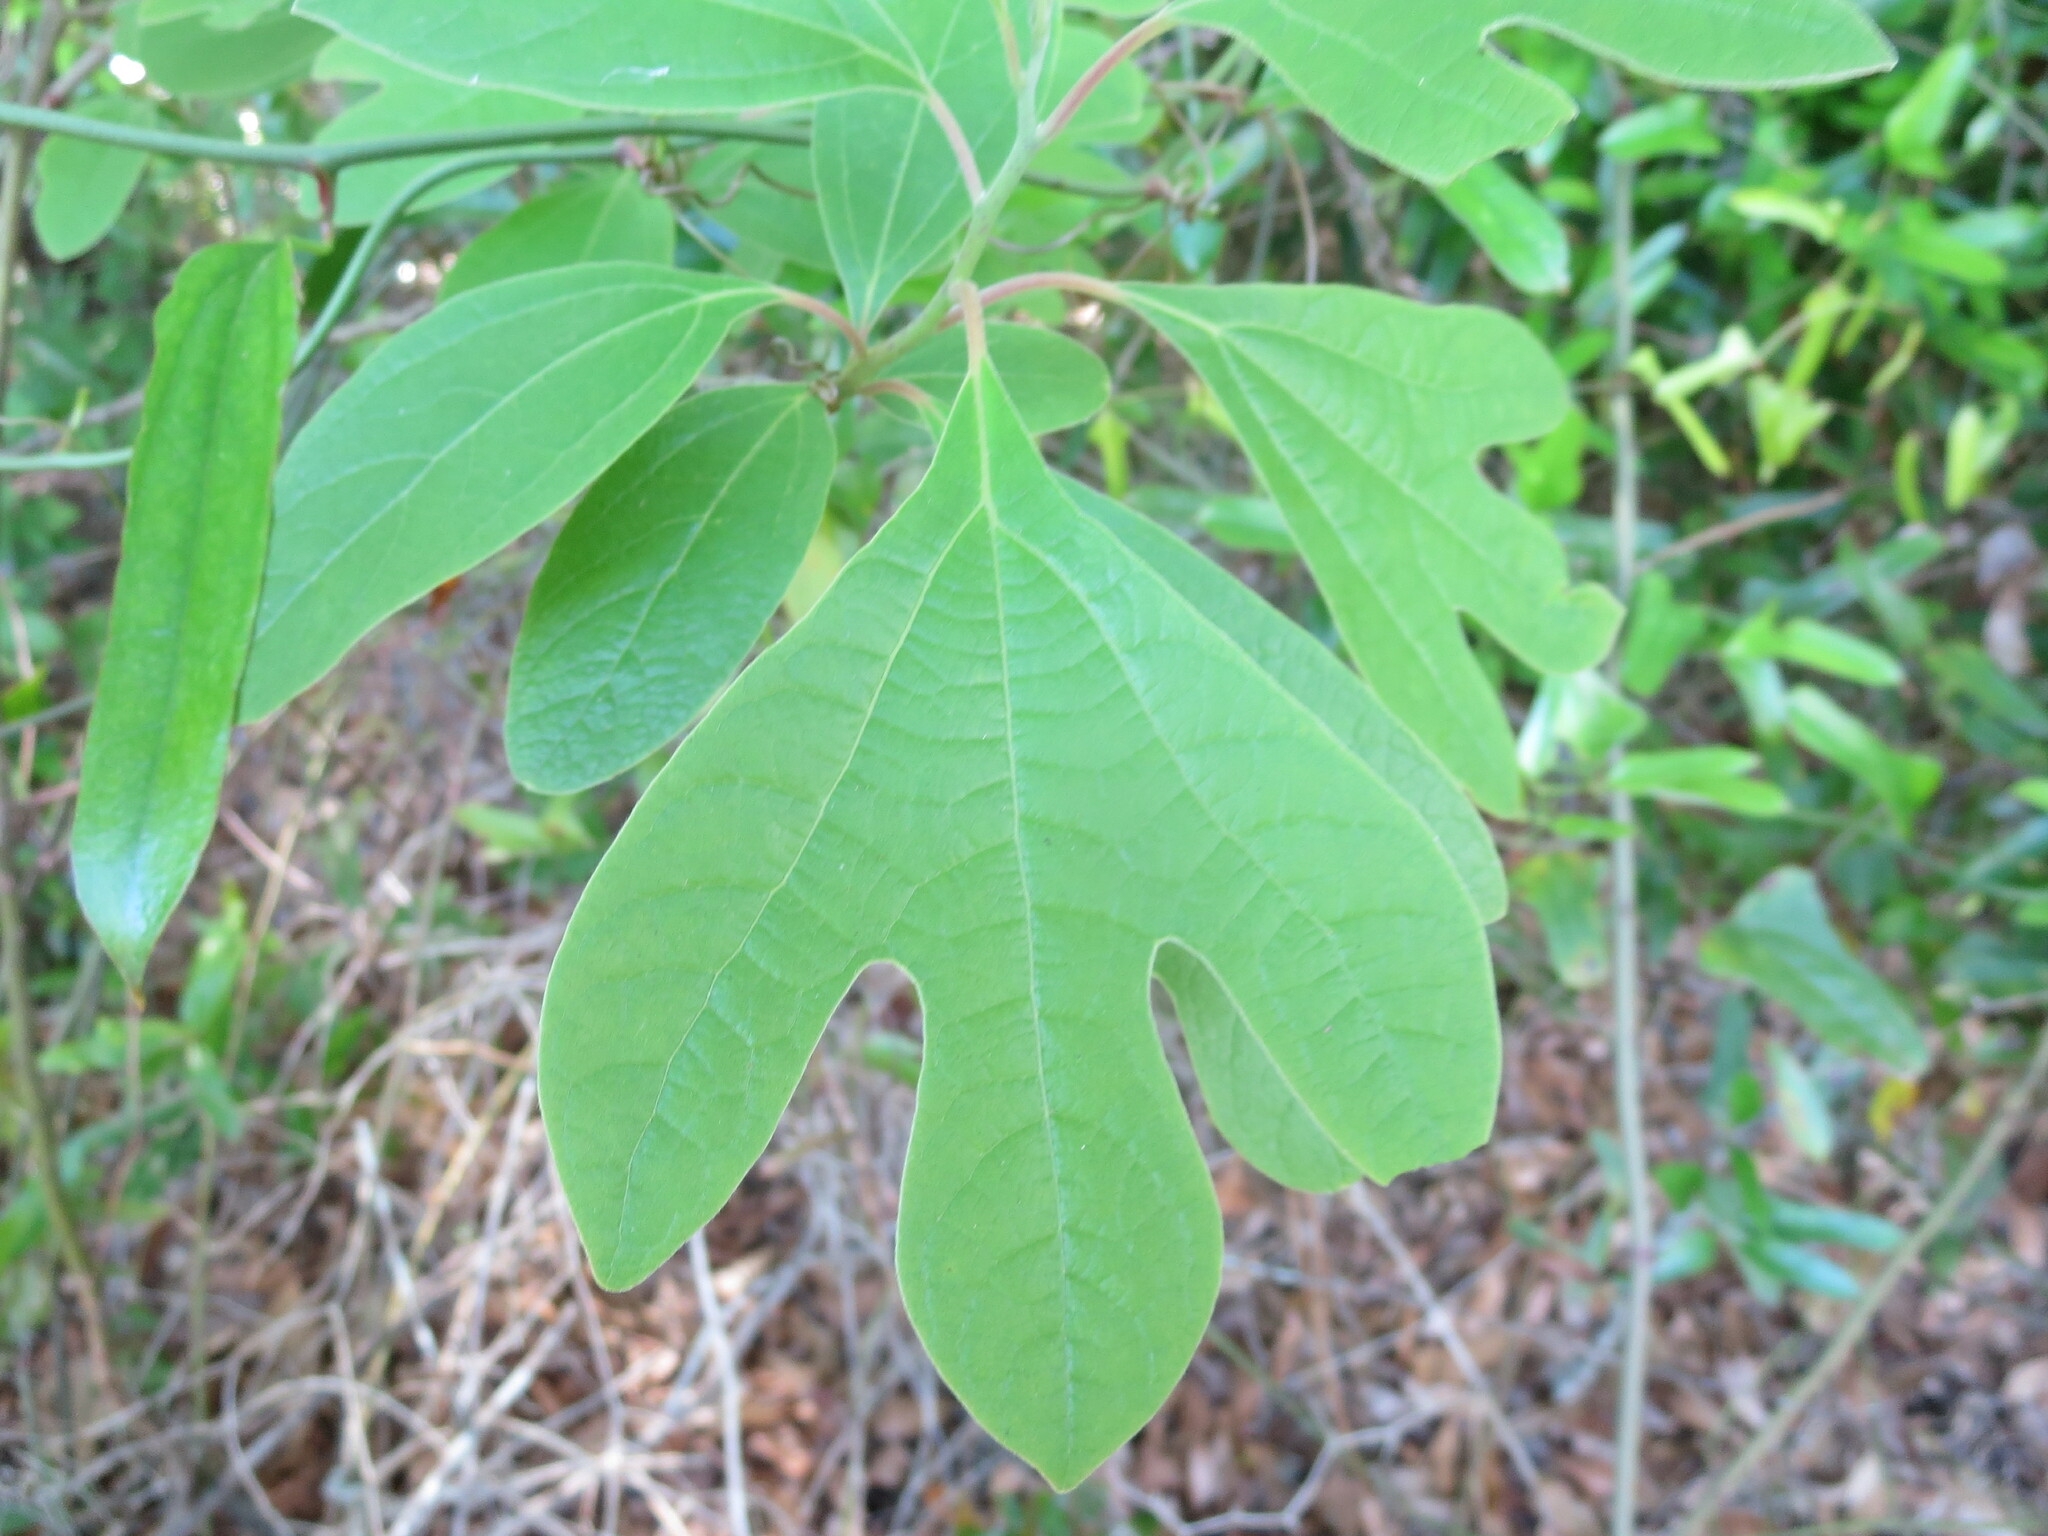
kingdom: Plantae
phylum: Tracheophyta
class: Magnoliopsida
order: Laurales
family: Lauraceae
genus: Sassafras
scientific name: Sassafras albidum
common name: Sassafras
